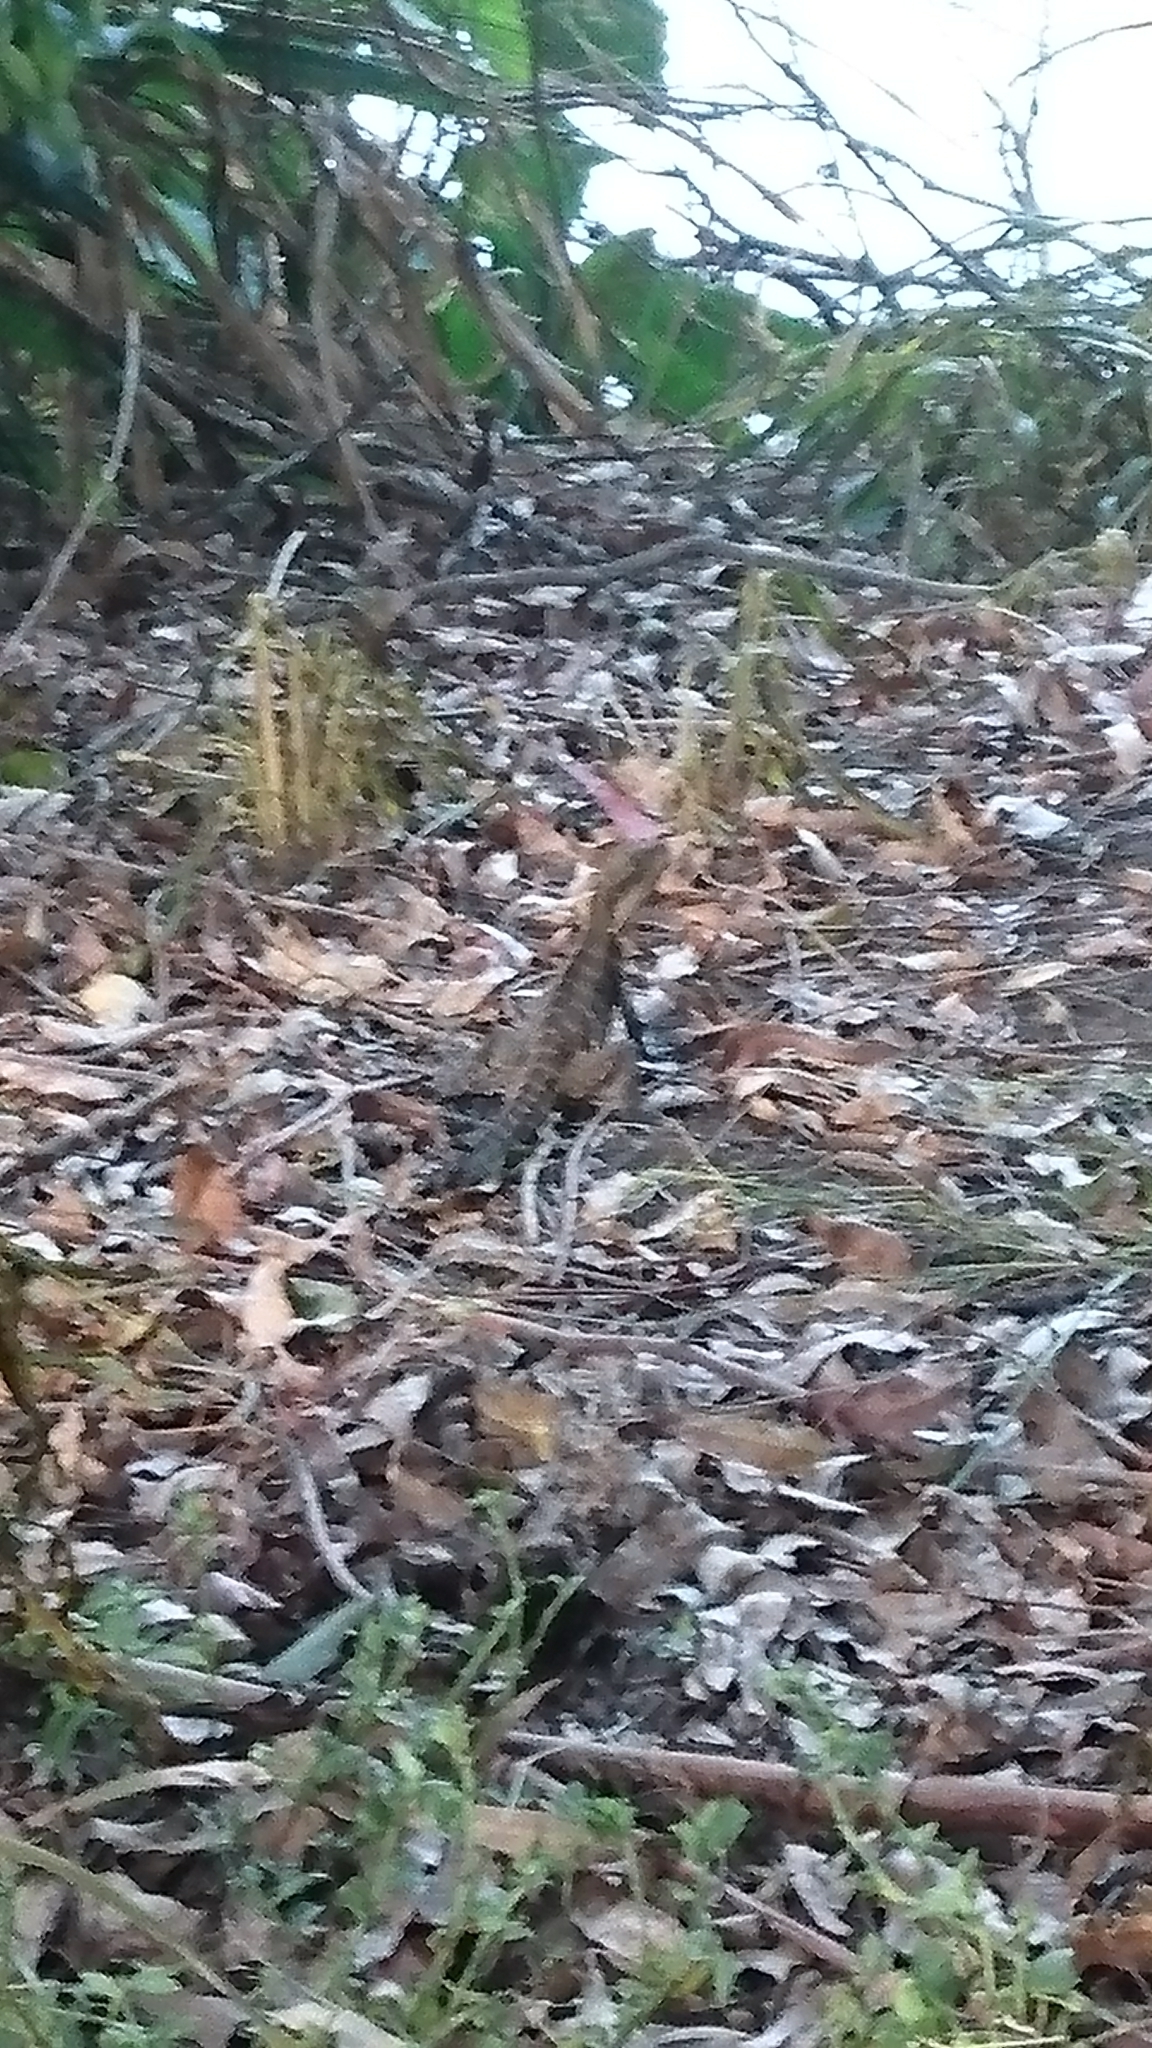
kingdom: Animalia
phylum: Chordata
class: Squamata
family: Agamidae
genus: Intellagama
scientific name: Intellagama lesueurii
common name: Eastern water dragon
